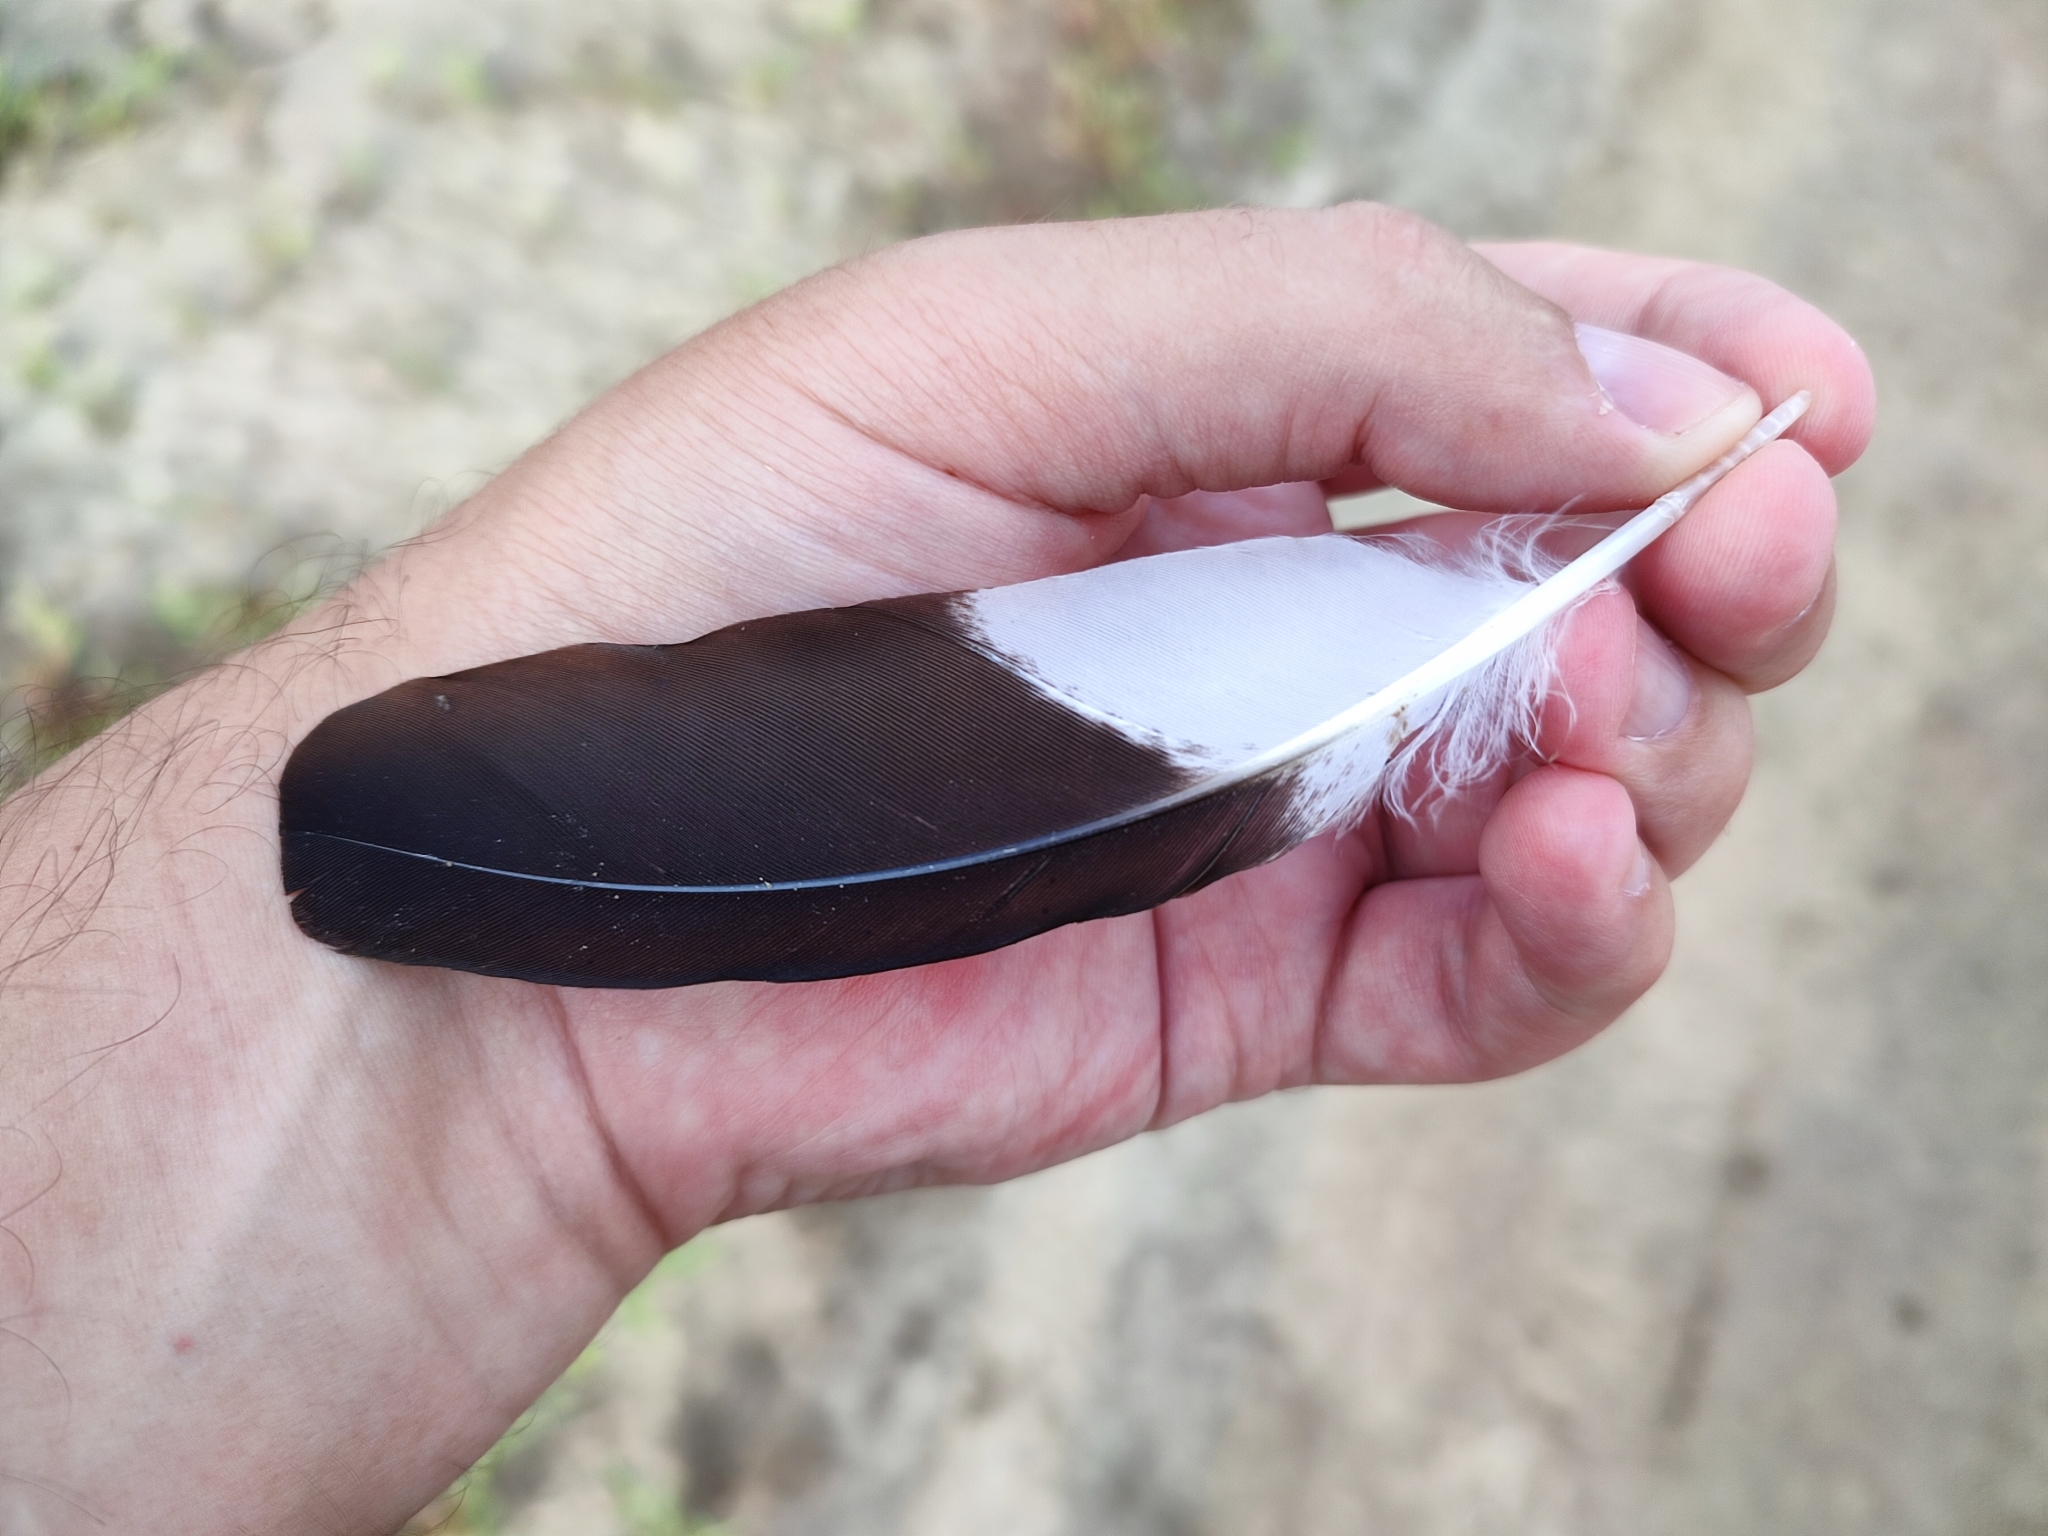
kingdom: Animalia
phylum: Chordata
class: Aves
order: Charadriiformes
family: Charadriidae
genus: Vanellus
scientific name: Vanellus vanellus
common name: Northern lapwing
